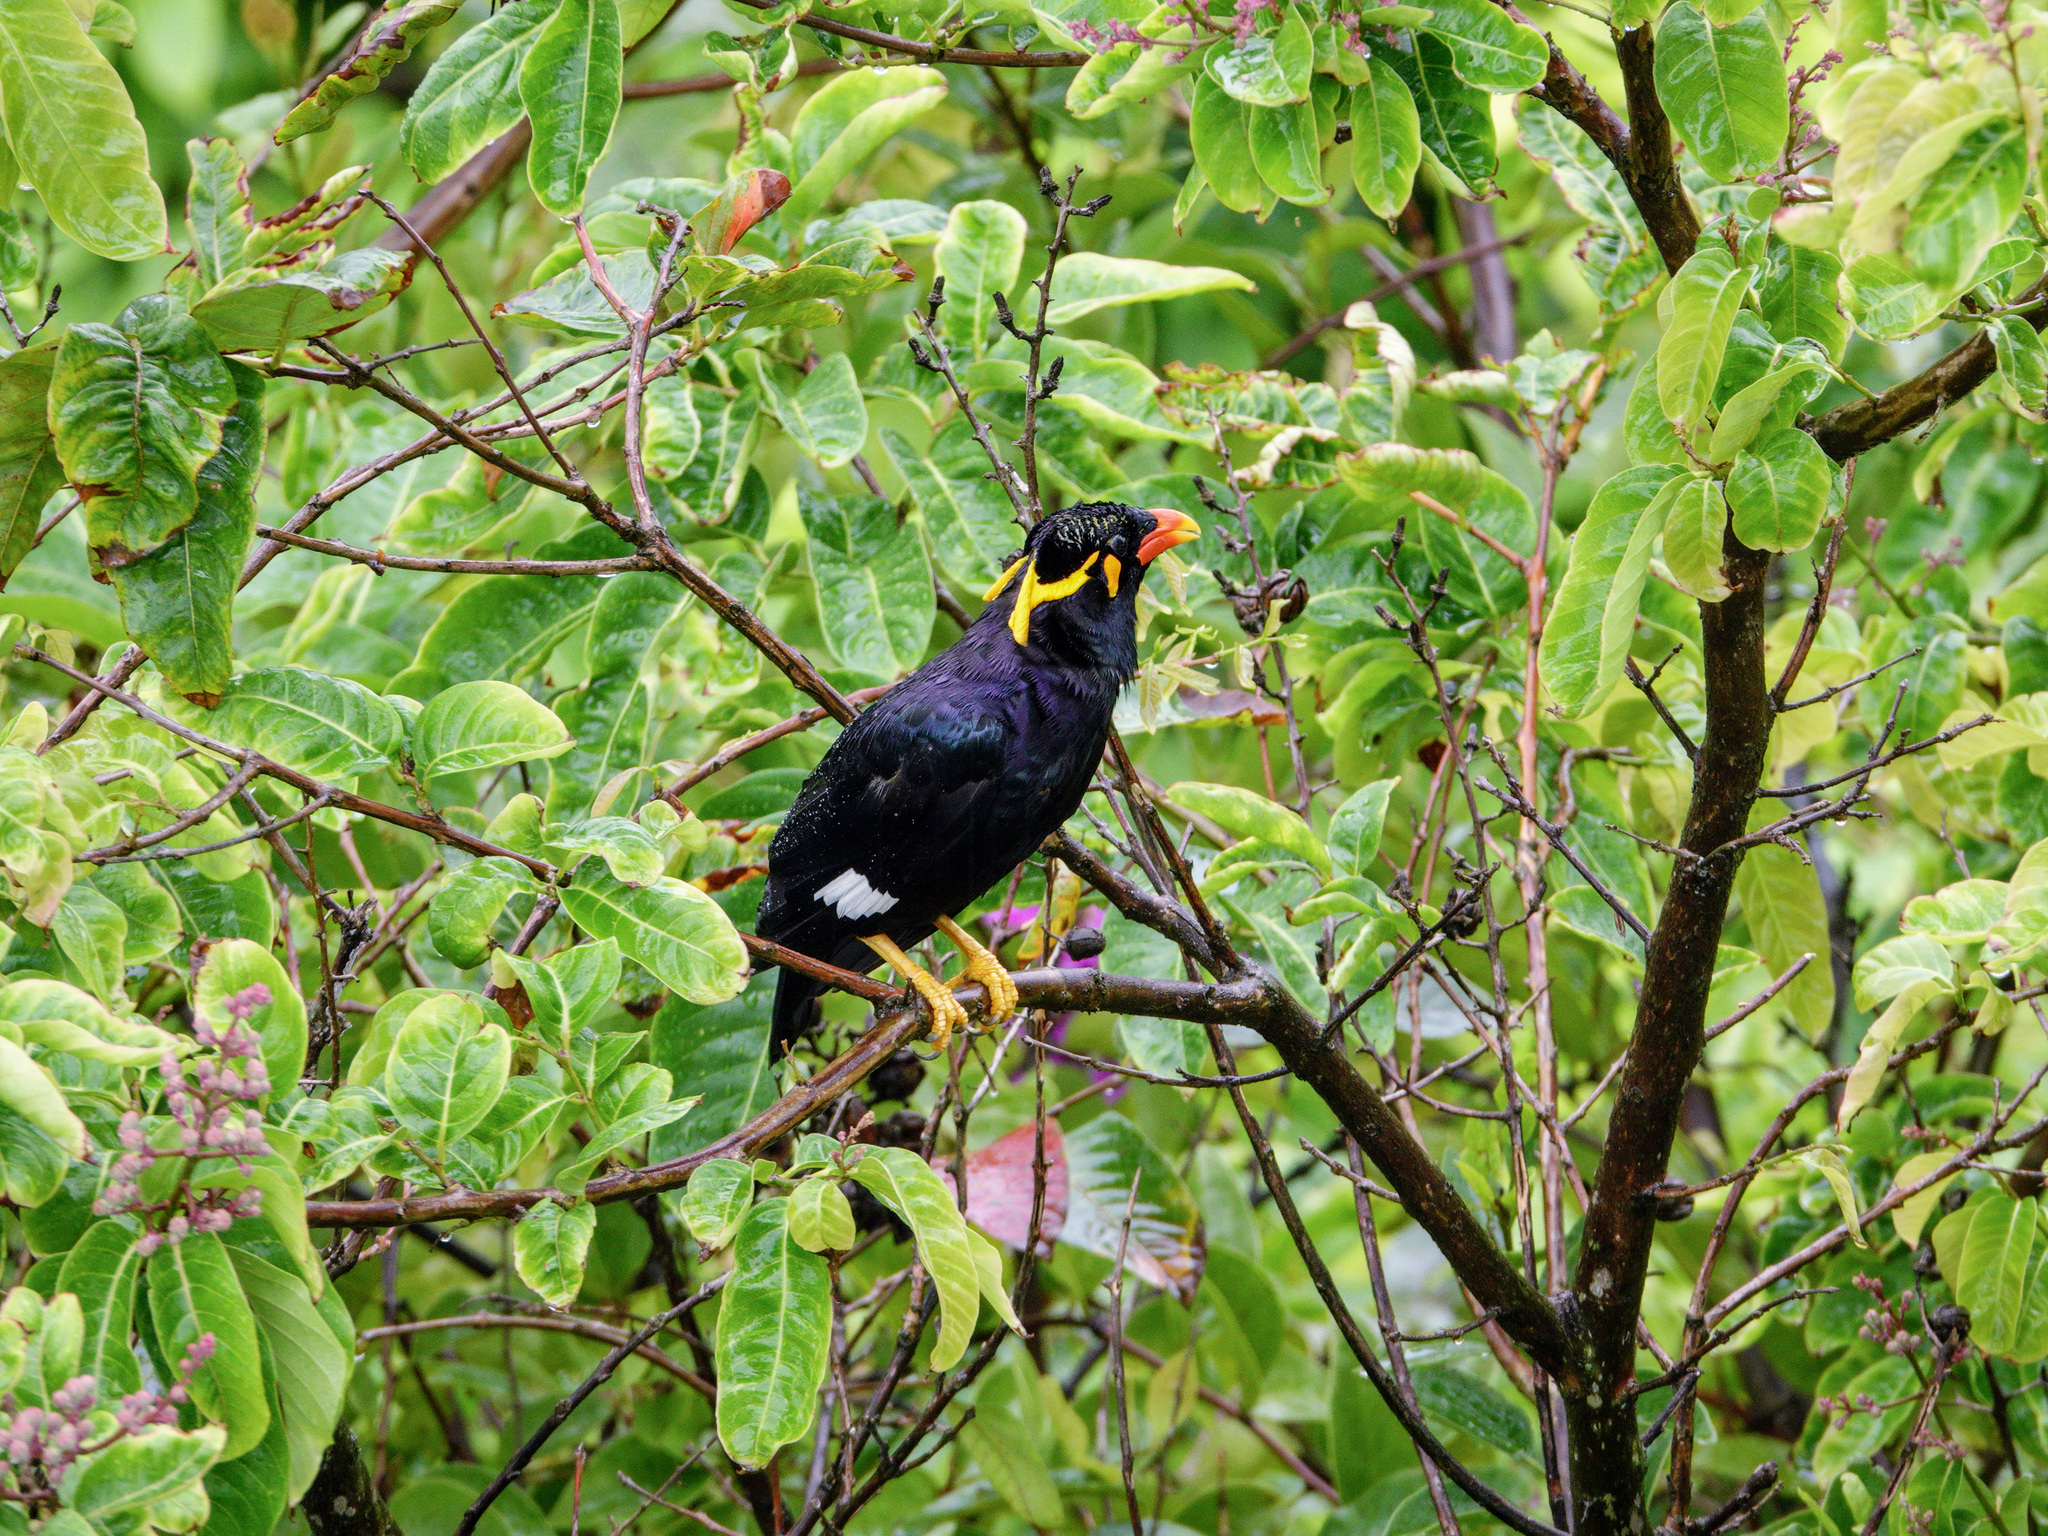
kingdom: Animalia
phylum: Chordata
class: Aves
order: Passeriformes
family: Sturnidae
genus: Gracula
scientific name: Gracula religiosa
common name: Common hill myna
